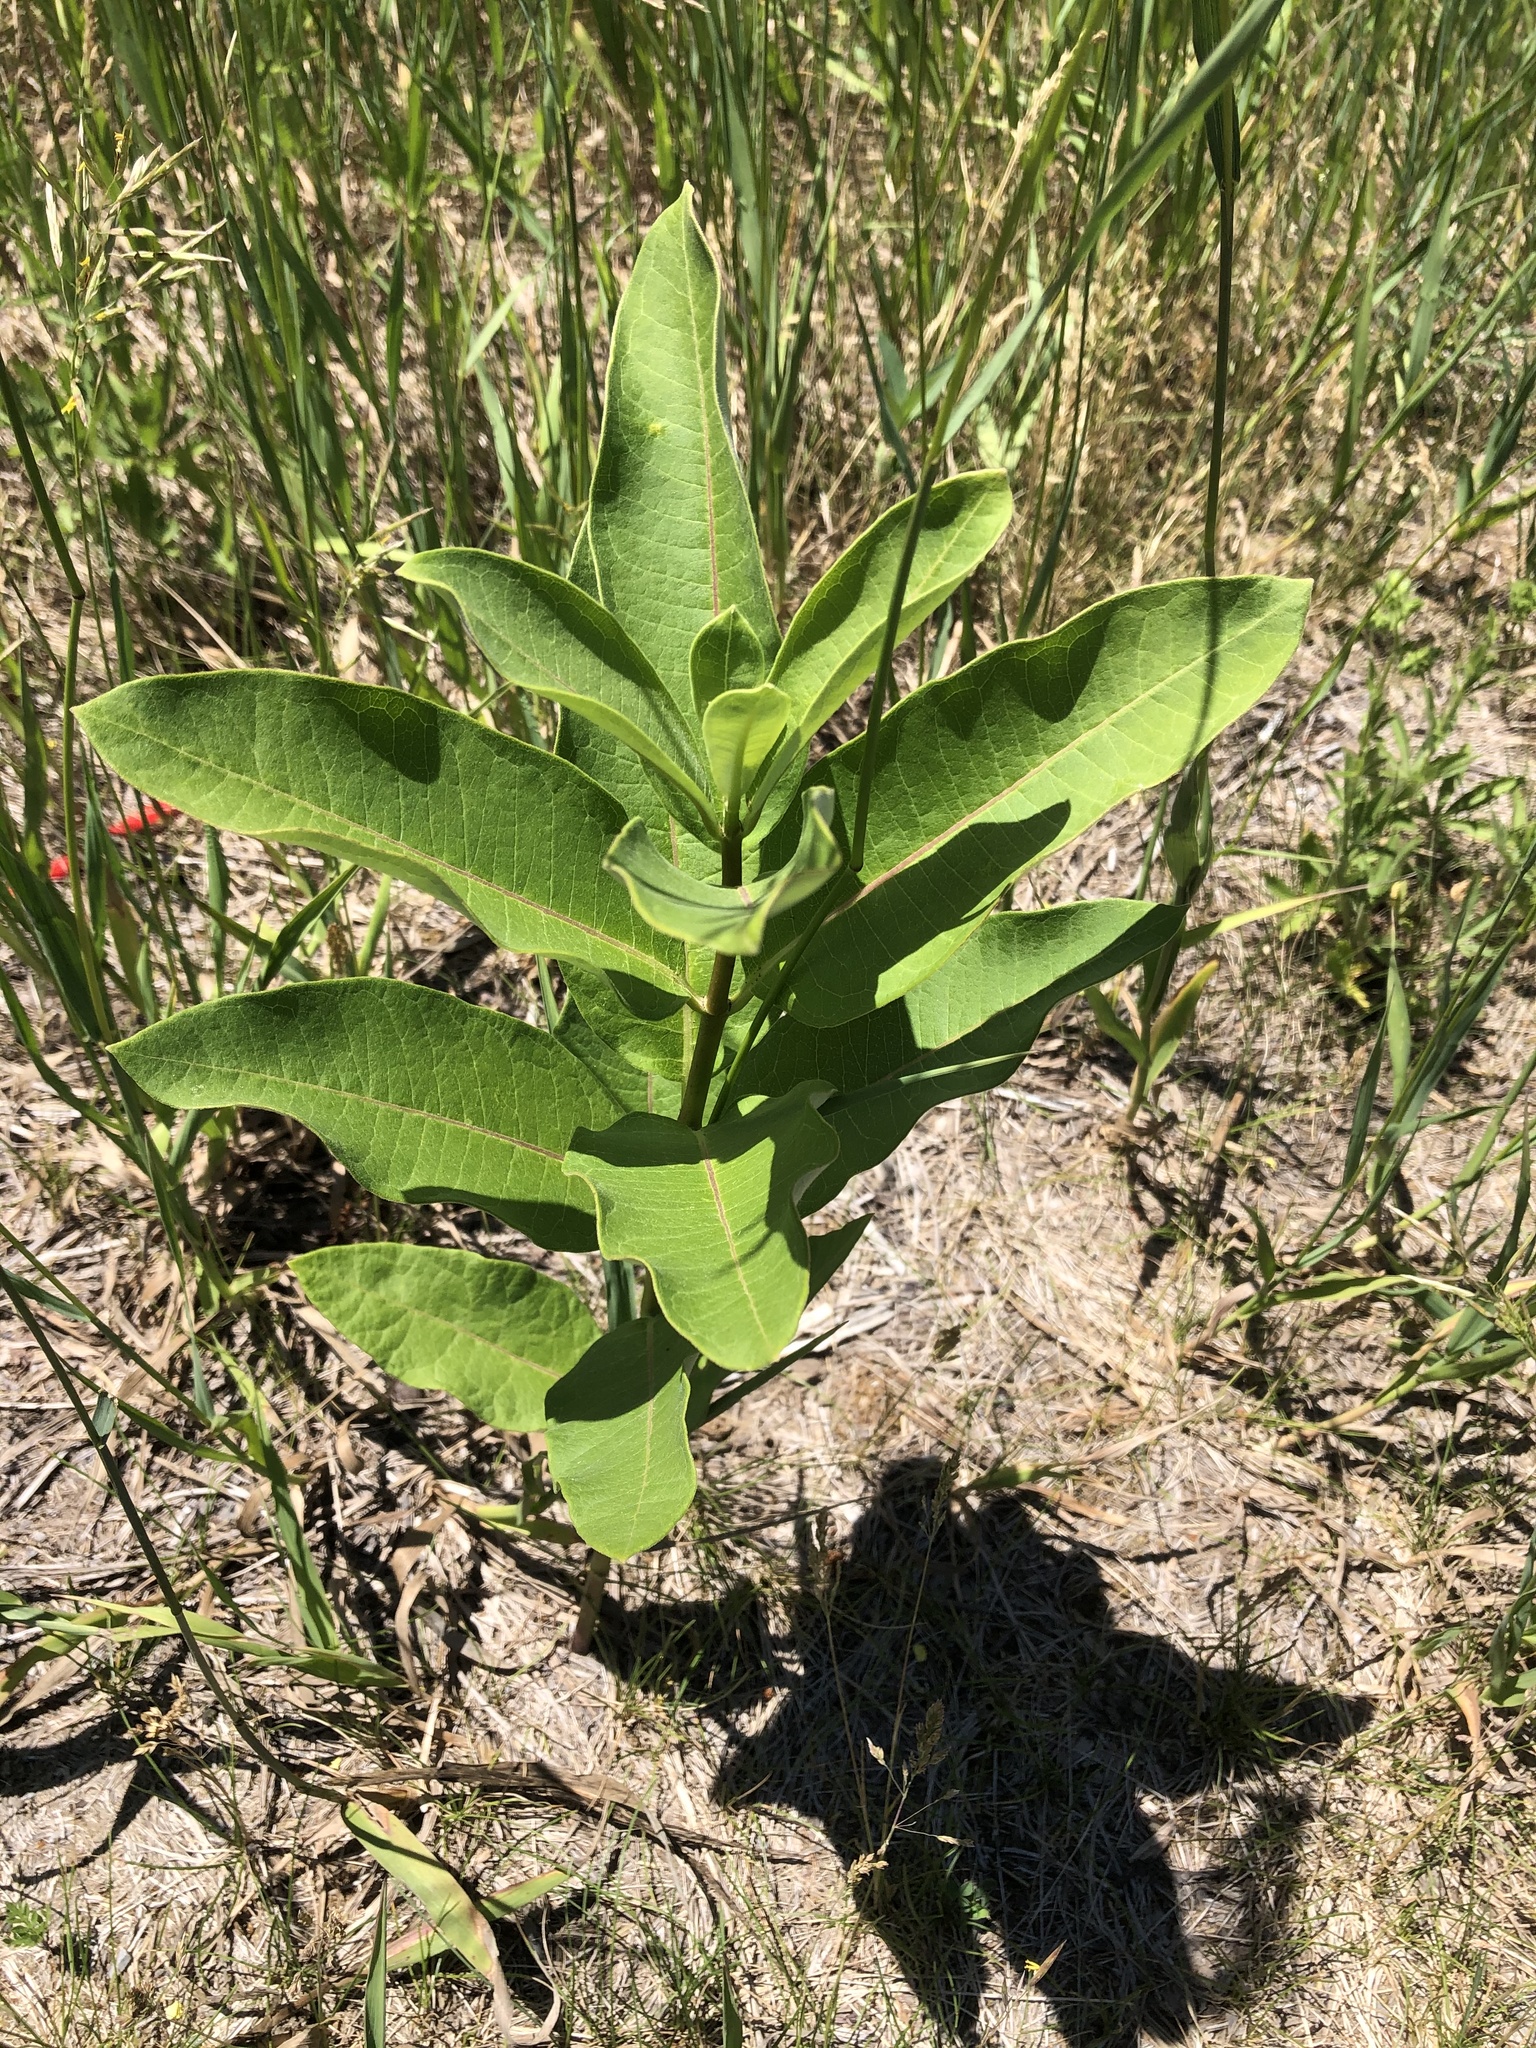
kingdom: Plantae
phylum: Tracheophyta
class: Magnoliopsida
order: Gentianales
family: Apocynaceae
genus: Asclepias
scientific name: Asclepias syriaca
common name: Common milkweed
